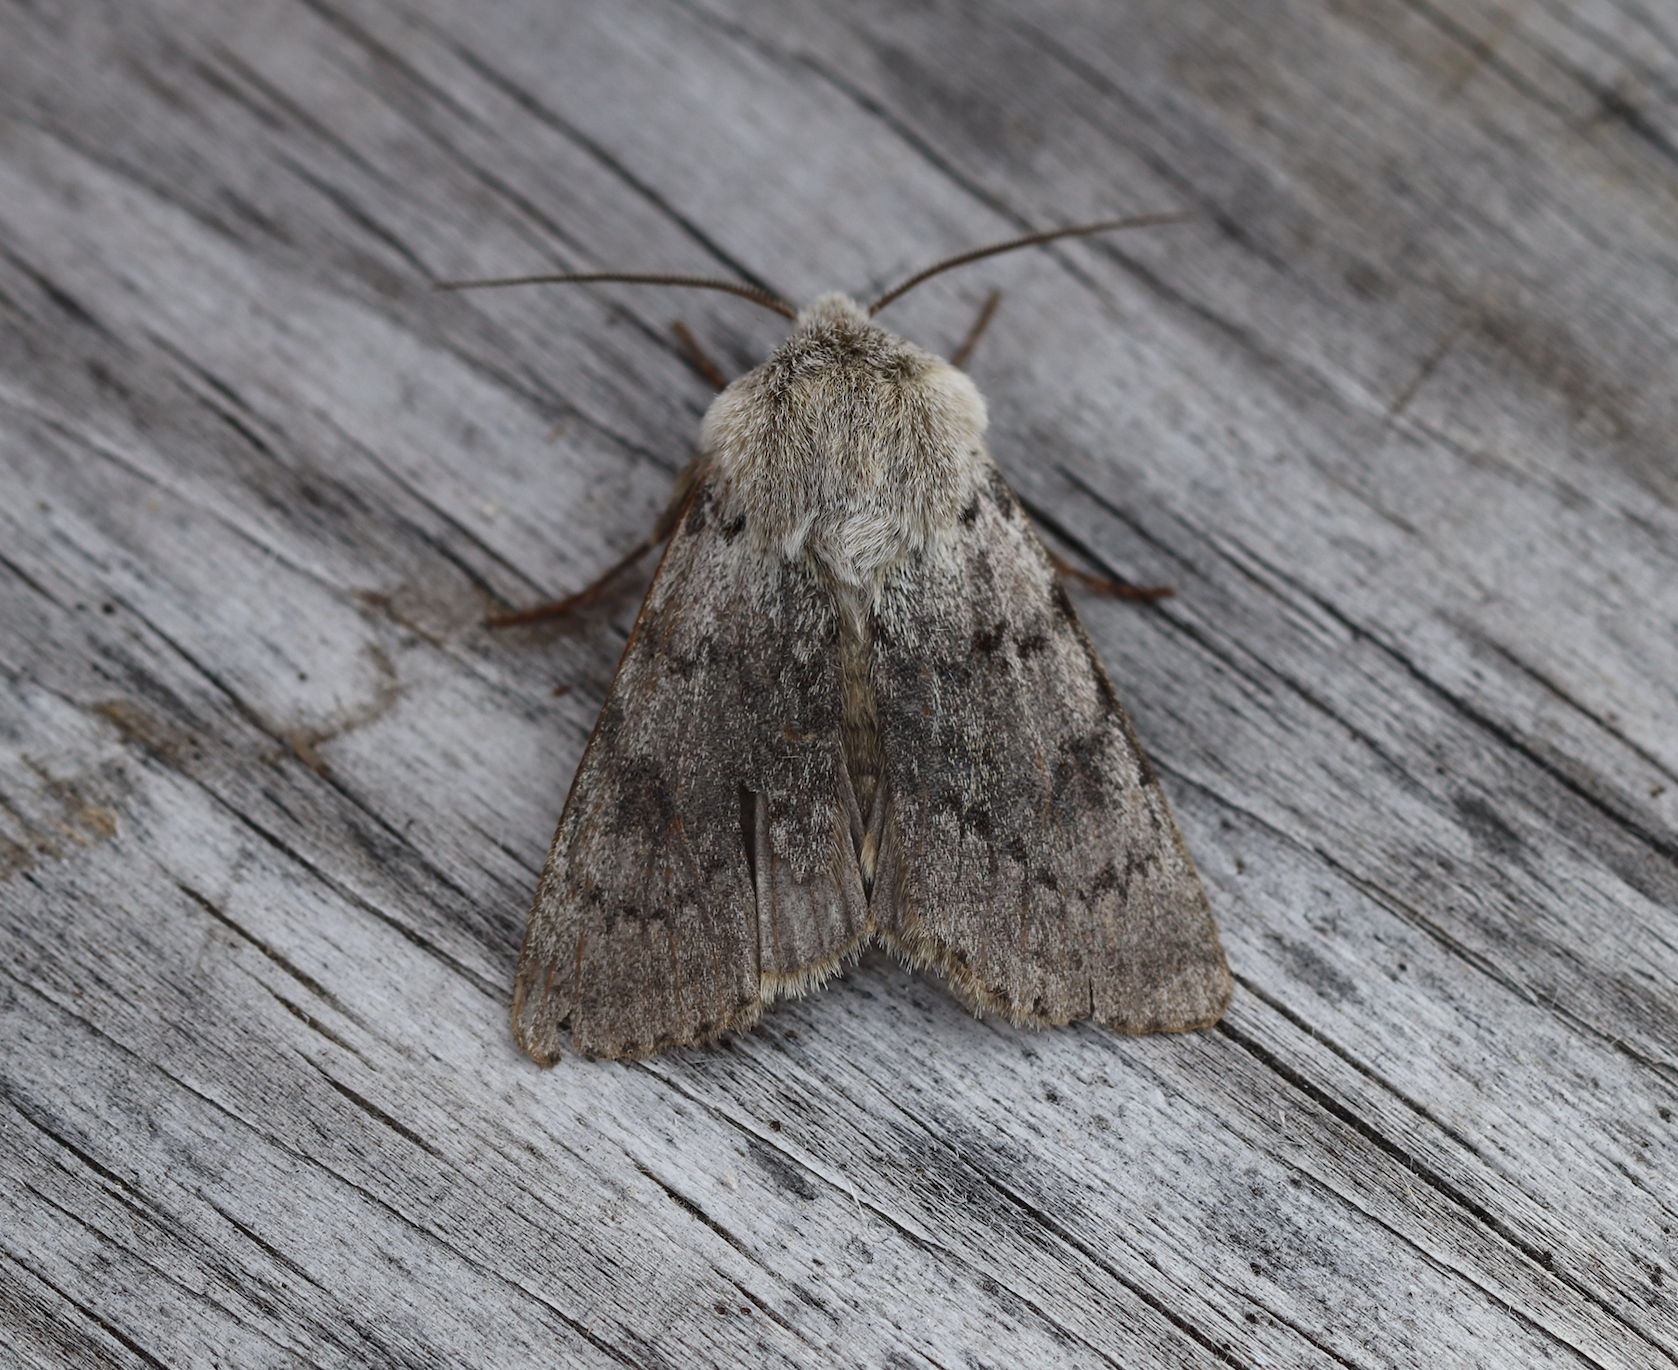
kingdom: Animalia
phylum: Arthropoda
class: Insecta
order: Lepidoptera
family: Noctuidae
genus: Agrotis
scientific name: Agrotis simplonia
